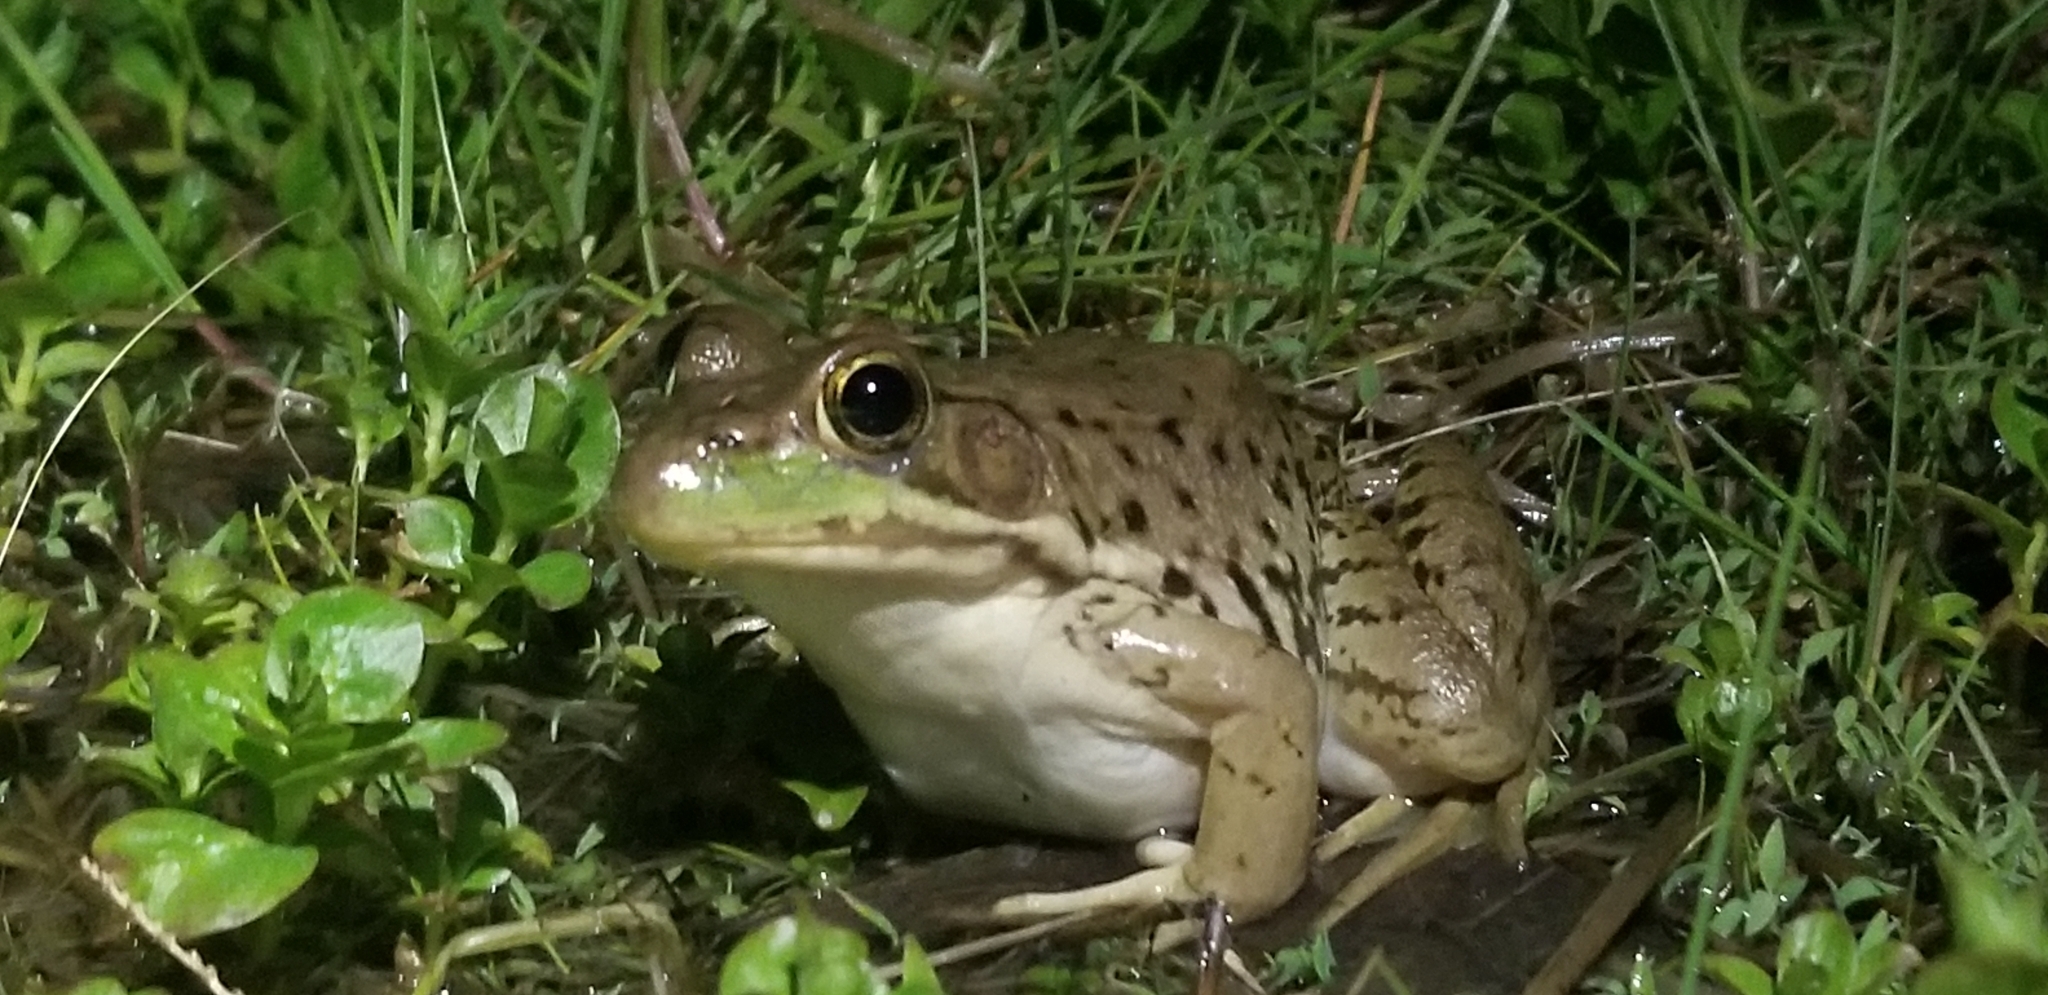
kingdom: Animalia
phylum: Chordata
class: Amphibia
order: Anura
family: Ranidae
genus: Lithobates
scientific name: Lithobates clamitans
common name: Green frog
